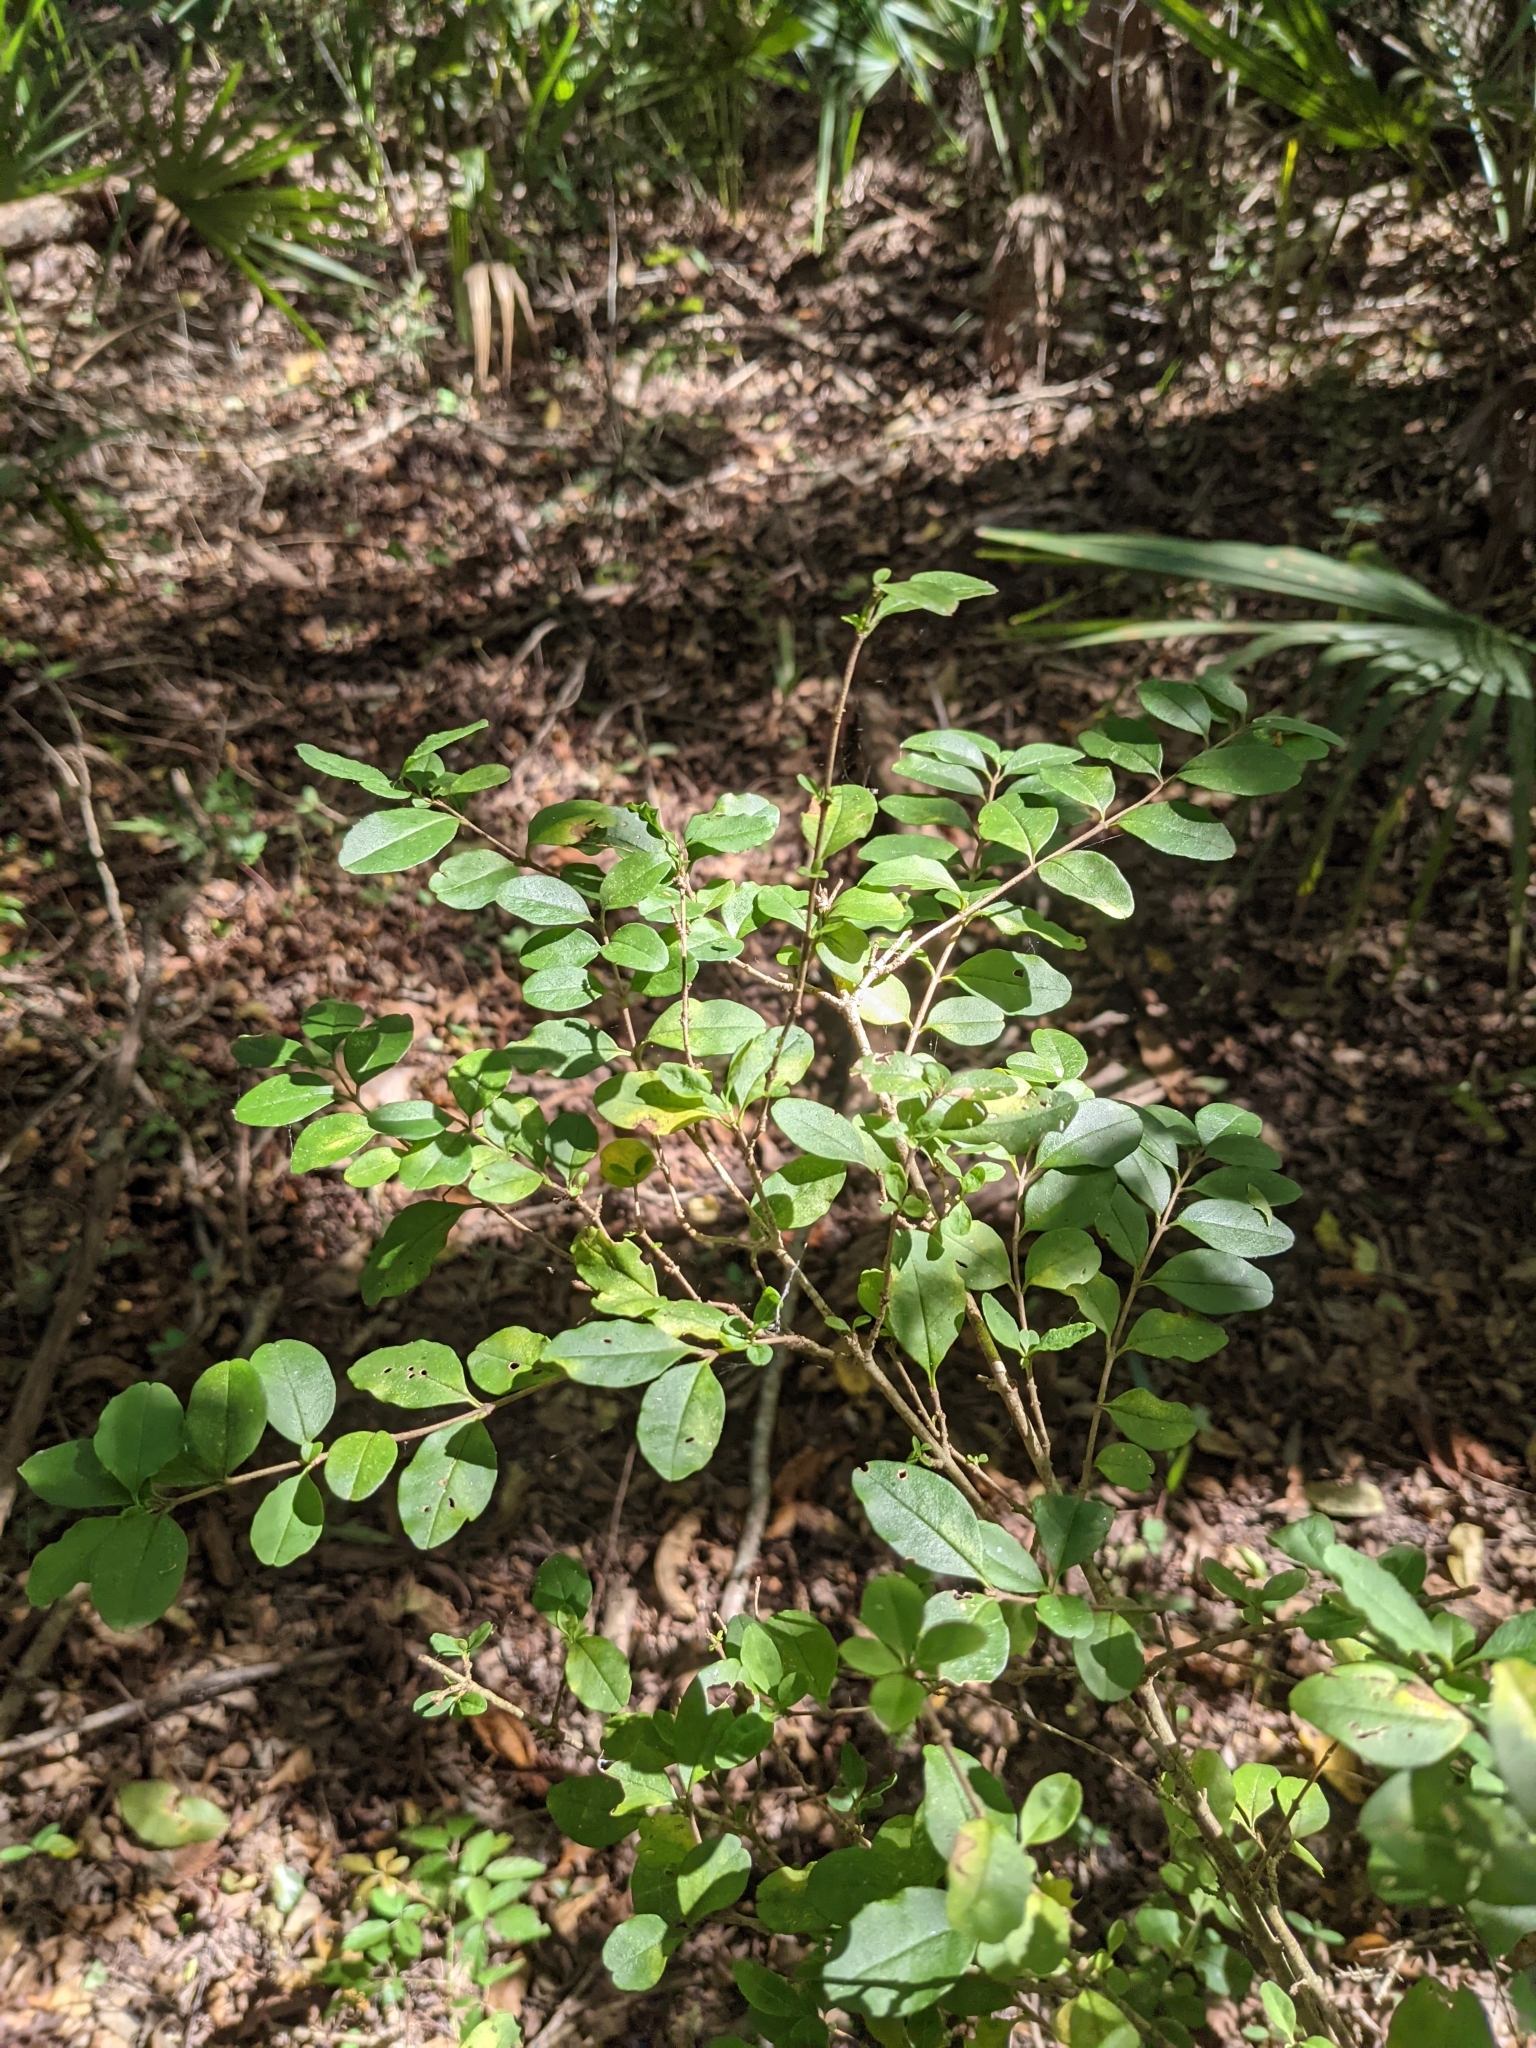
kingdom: Plantae
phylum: Tracheophyta
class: Magnoliopsida
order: Lamiales
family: Oleaceae
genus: Ligustrum
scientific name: Ligustrum sinense
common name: Chinese privet
